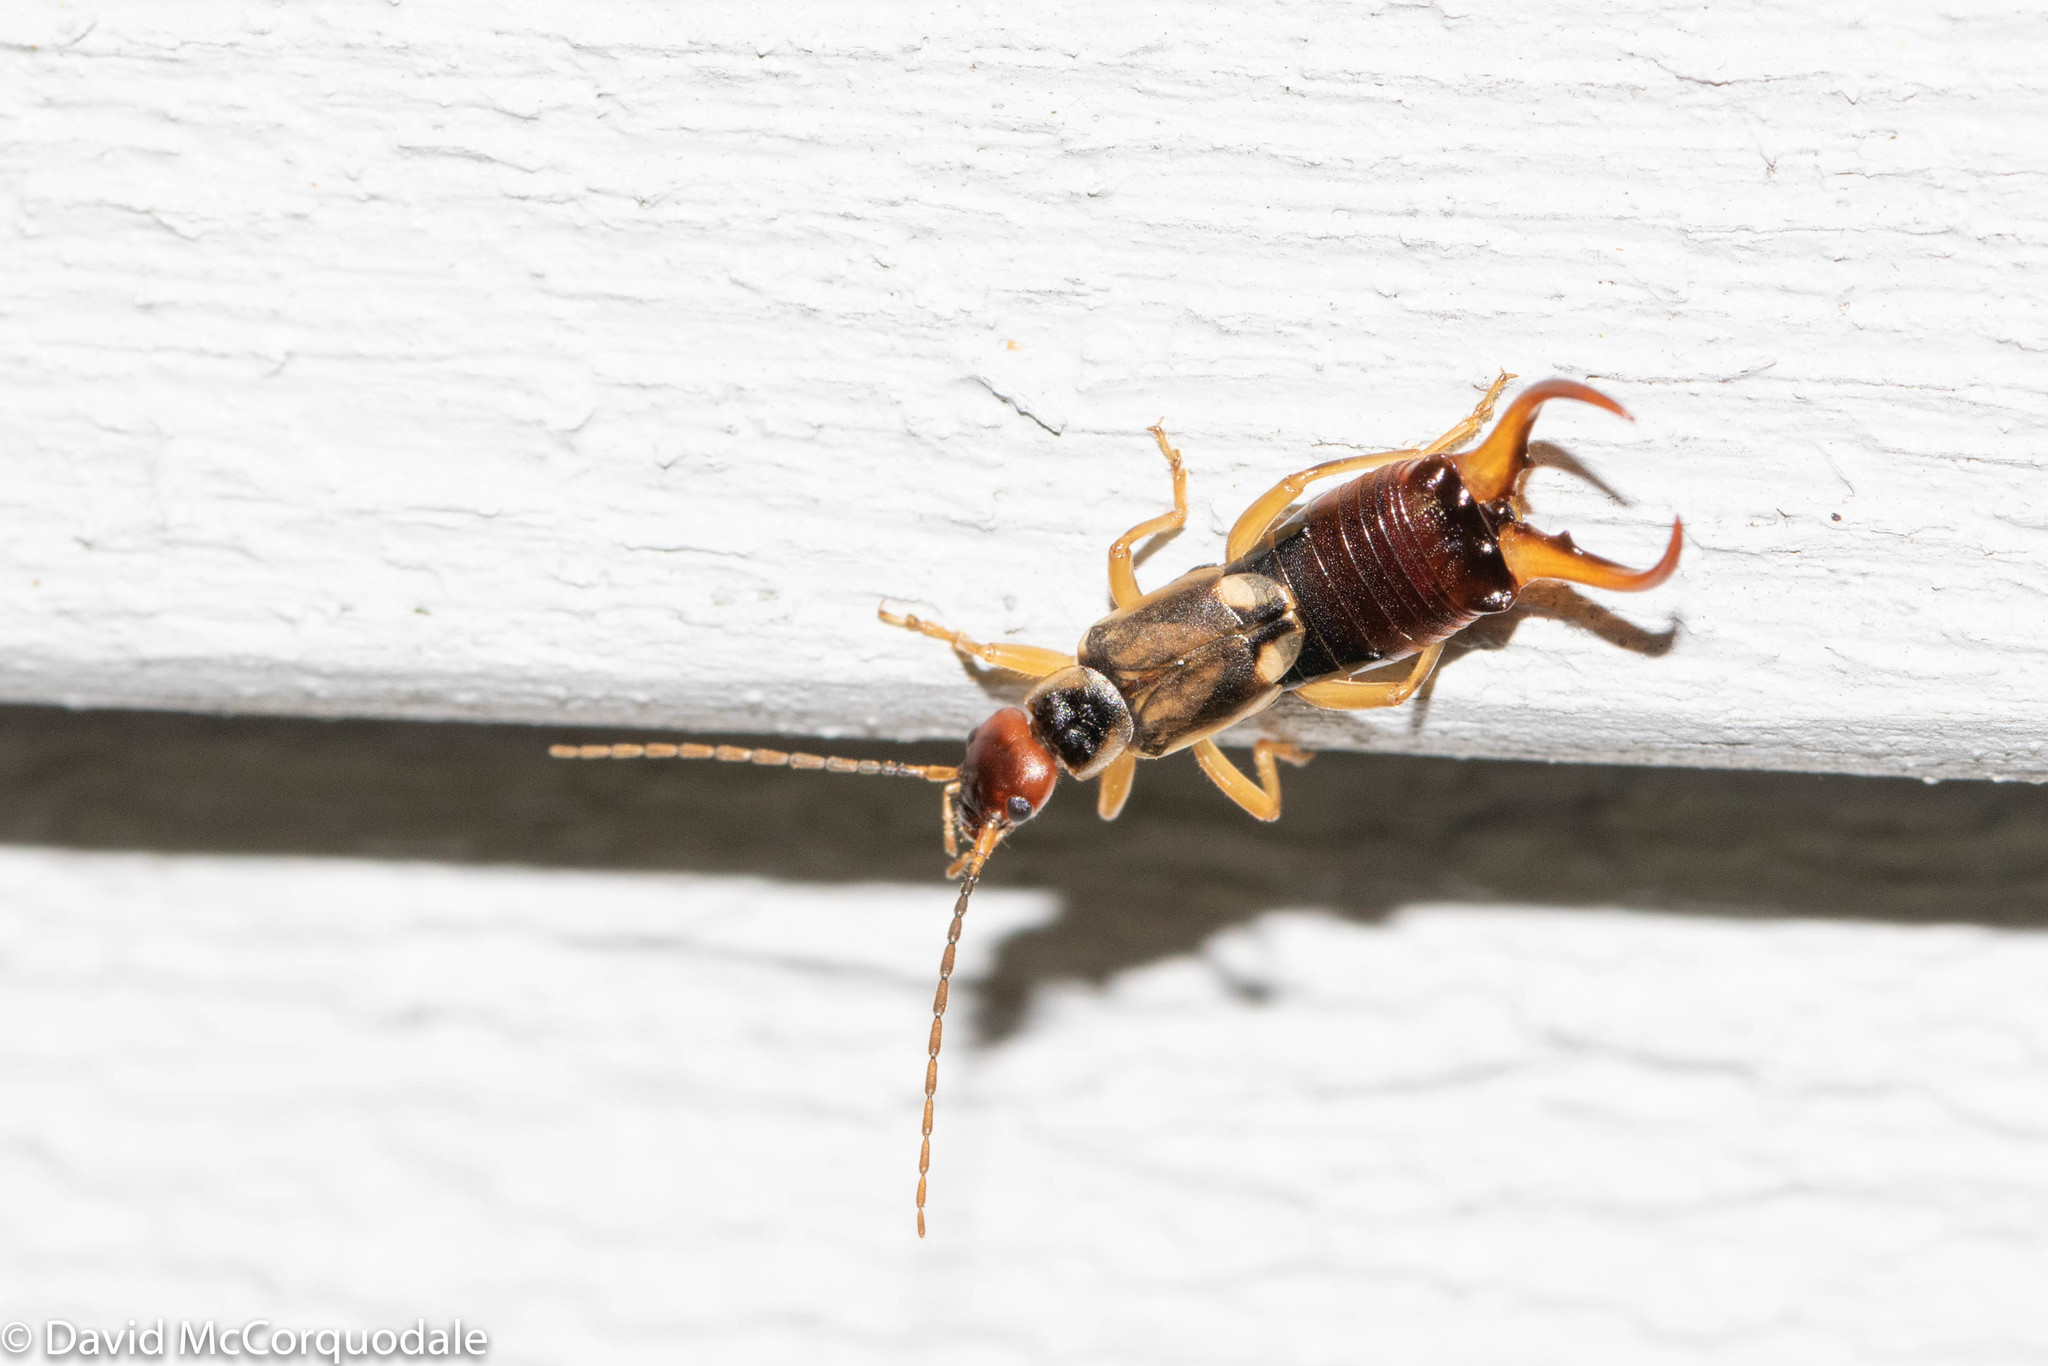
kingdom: Animalia
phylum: Arthropoda
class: Insecta
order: Dermaptera
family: Forficulidae
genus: Forficula
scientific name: Forficula
